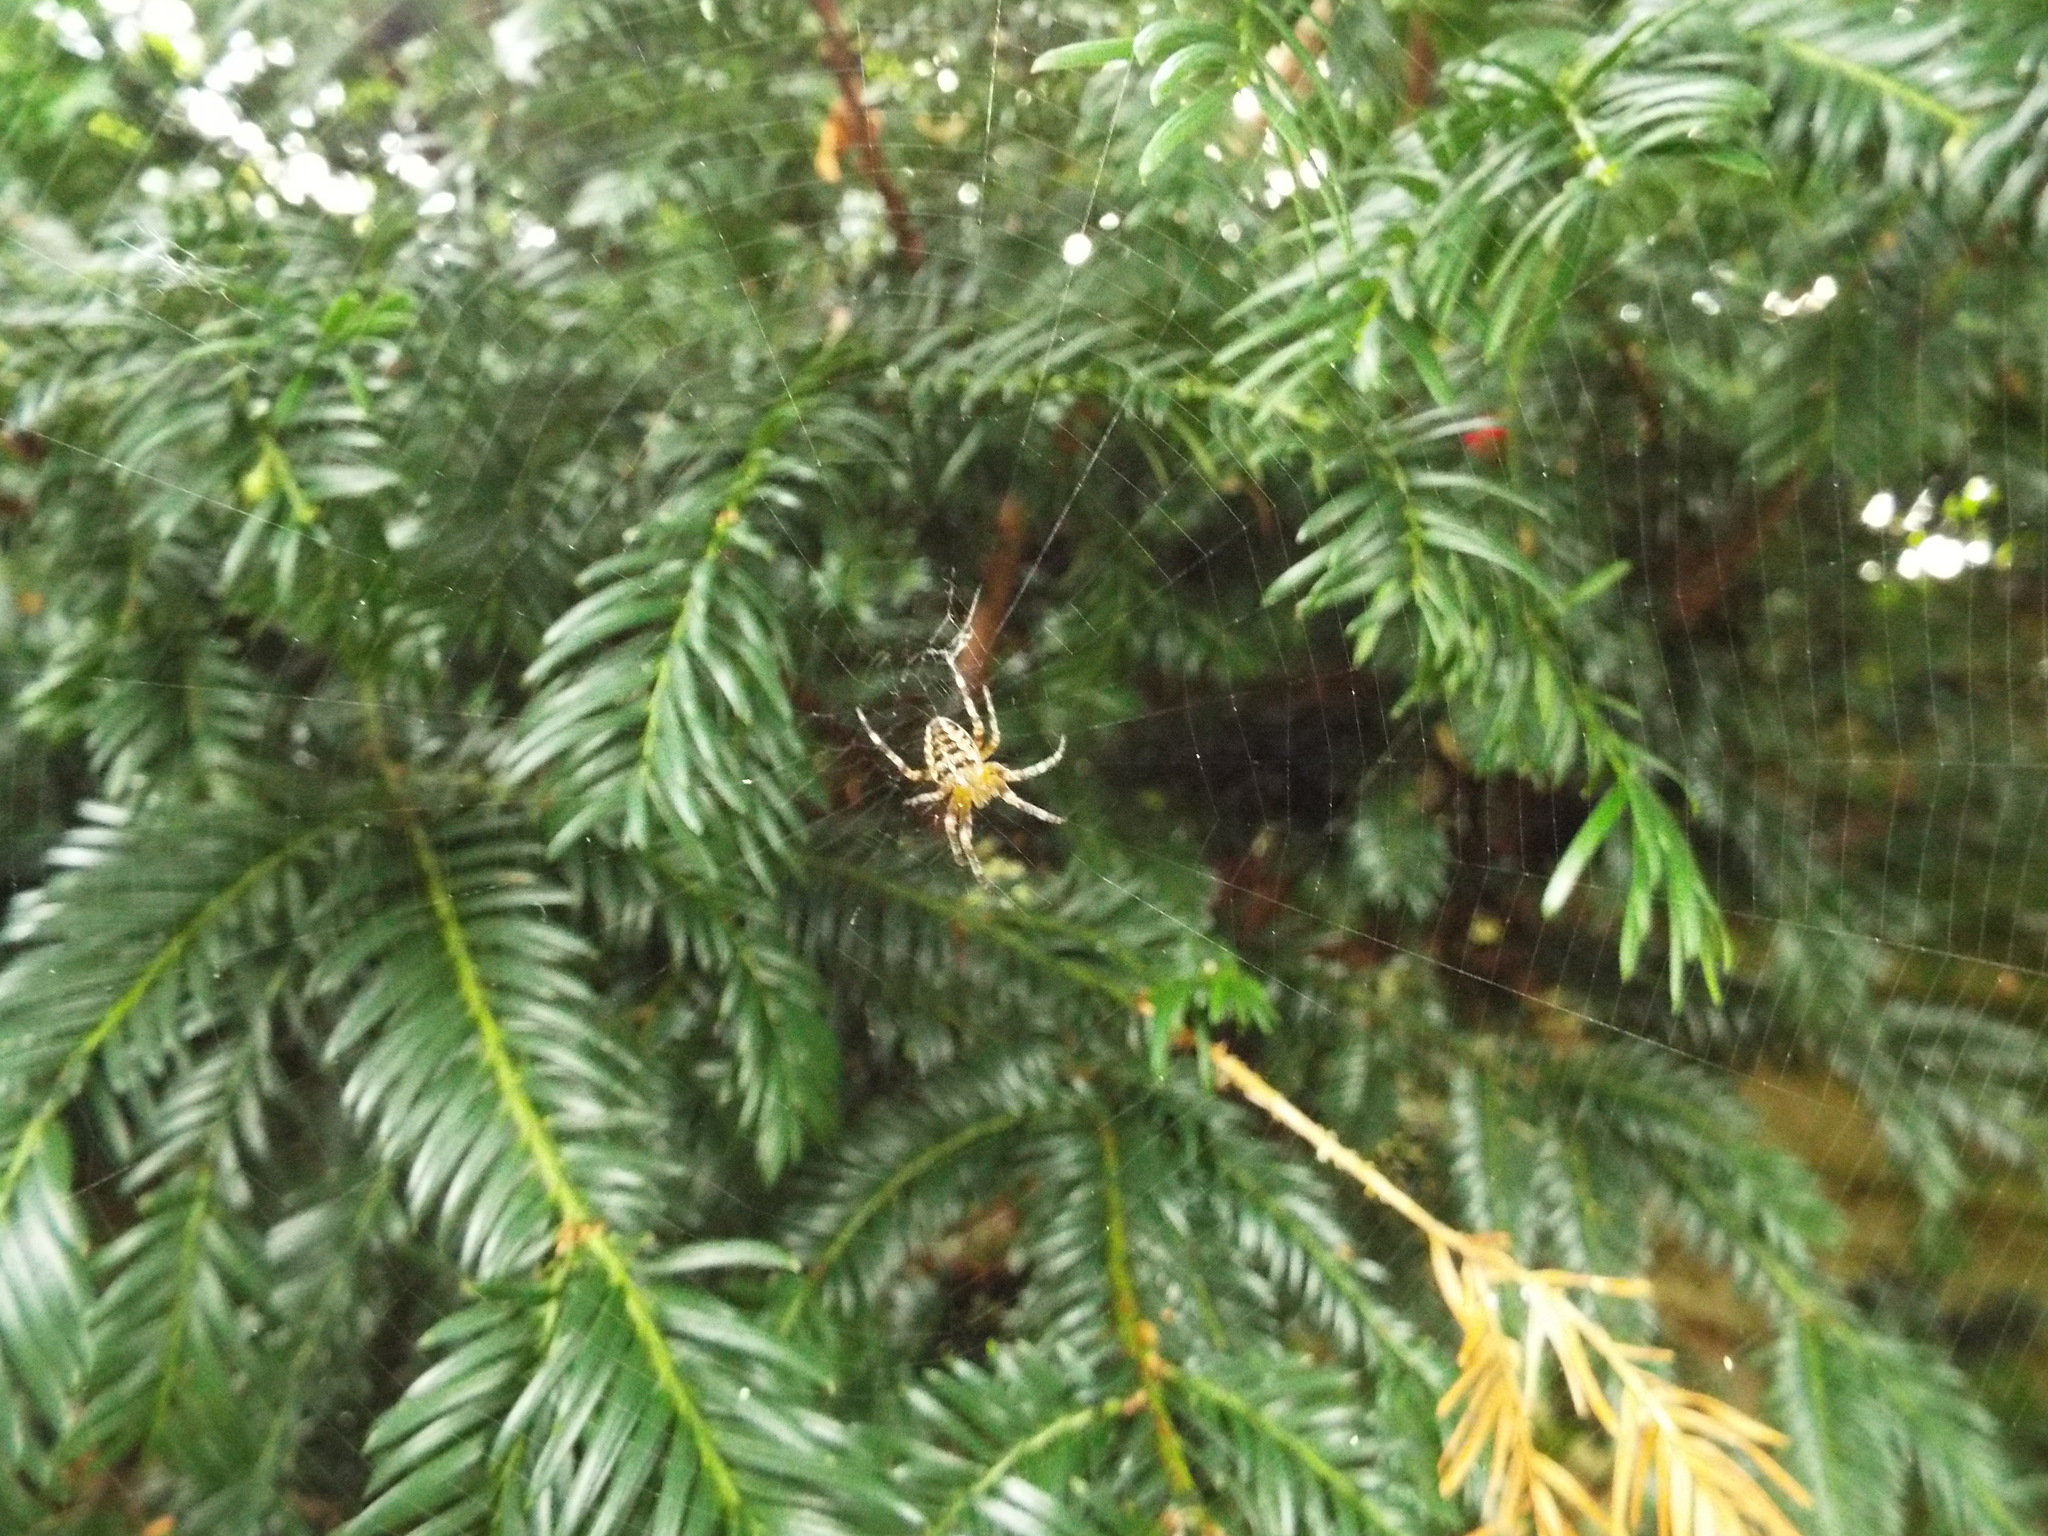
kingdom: Animalia
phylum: Arthropoda
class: Arachnida
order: Araneae
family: Araneidae
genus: Araneus
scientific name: Araneus diadematus
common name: Cross orbweaver
